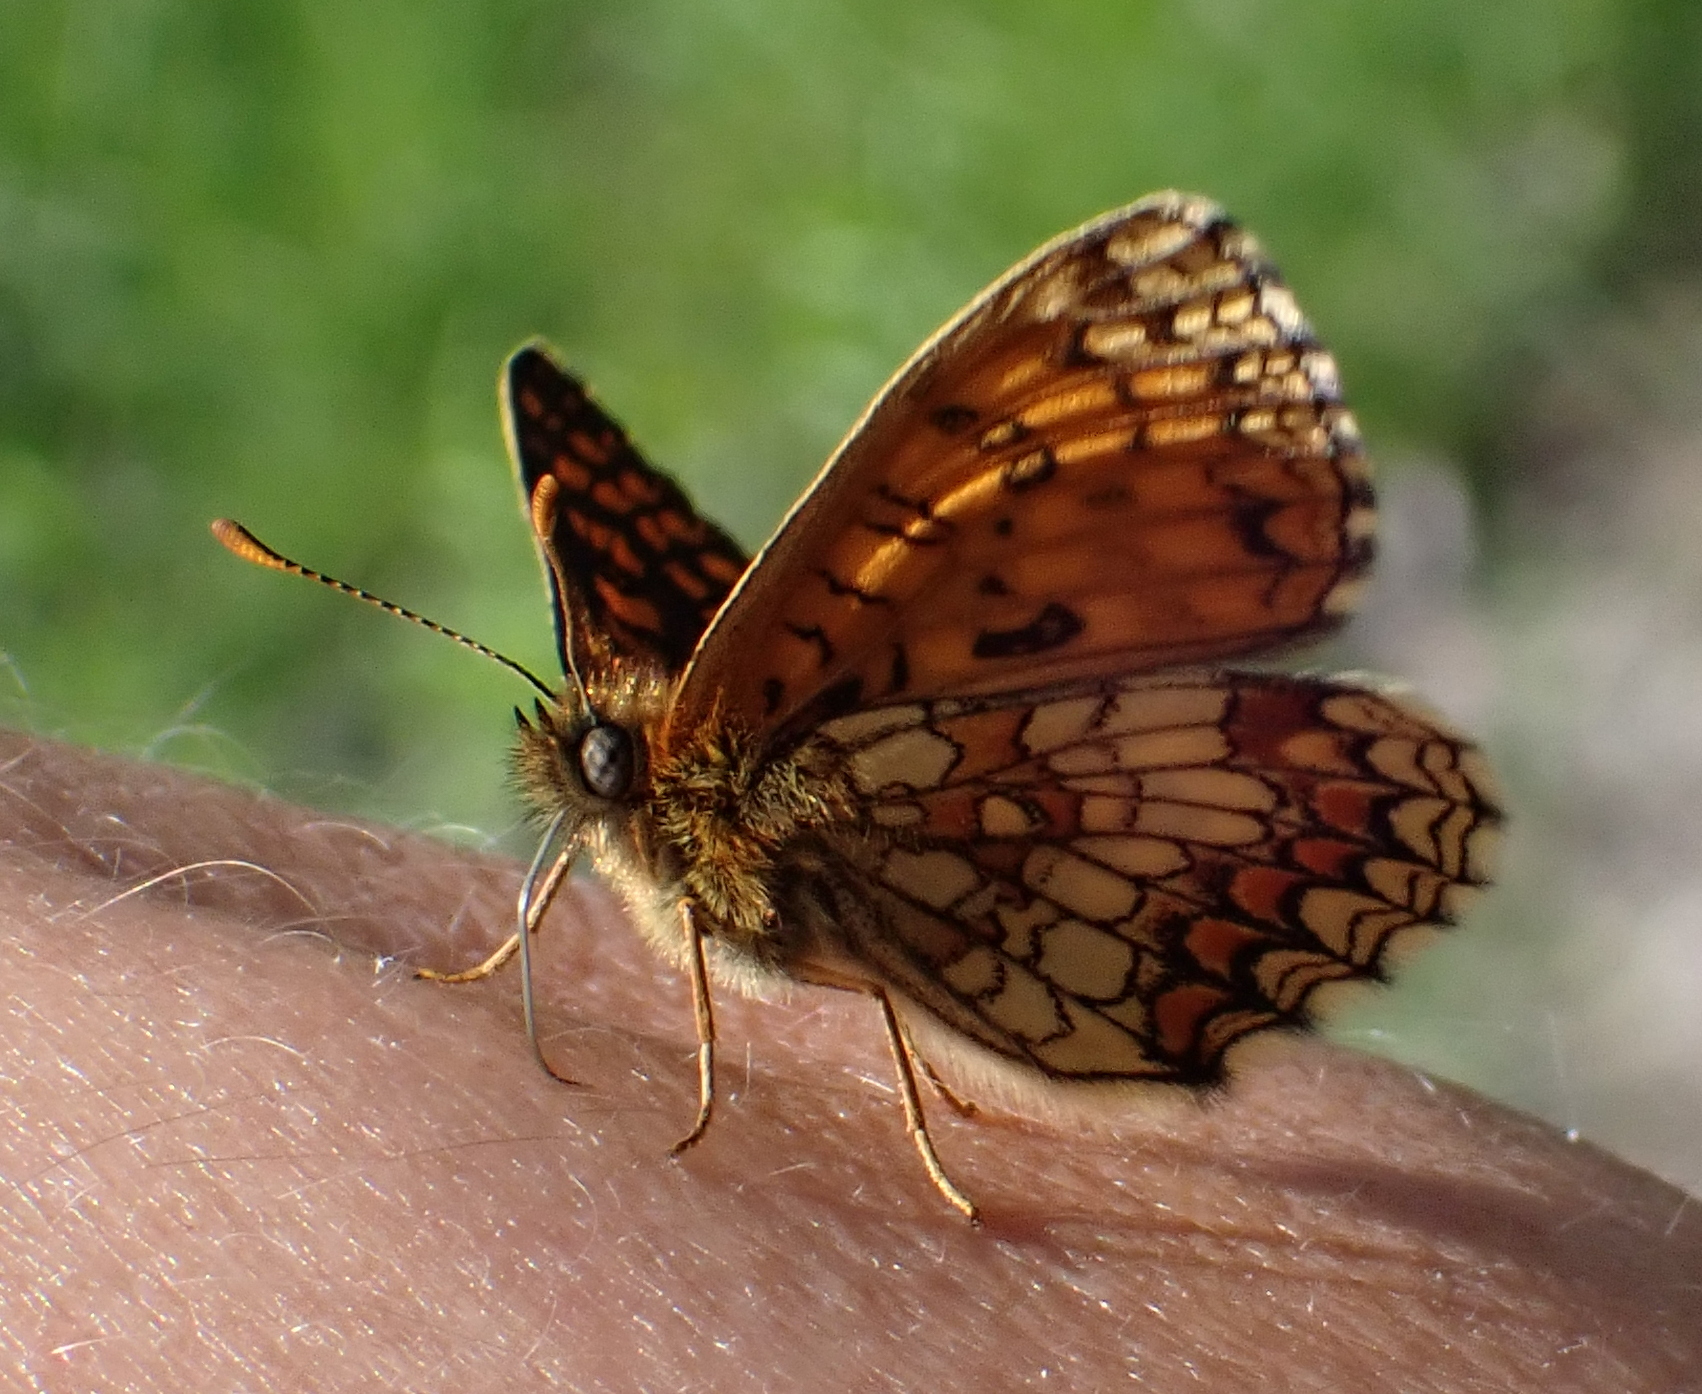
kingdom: Animalia
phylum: Arthropoda
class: Insecta
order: Lepidoptera
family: Nymphalidae
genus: Melitaea
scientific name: Melitaea athalia
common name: Heath fritillary
